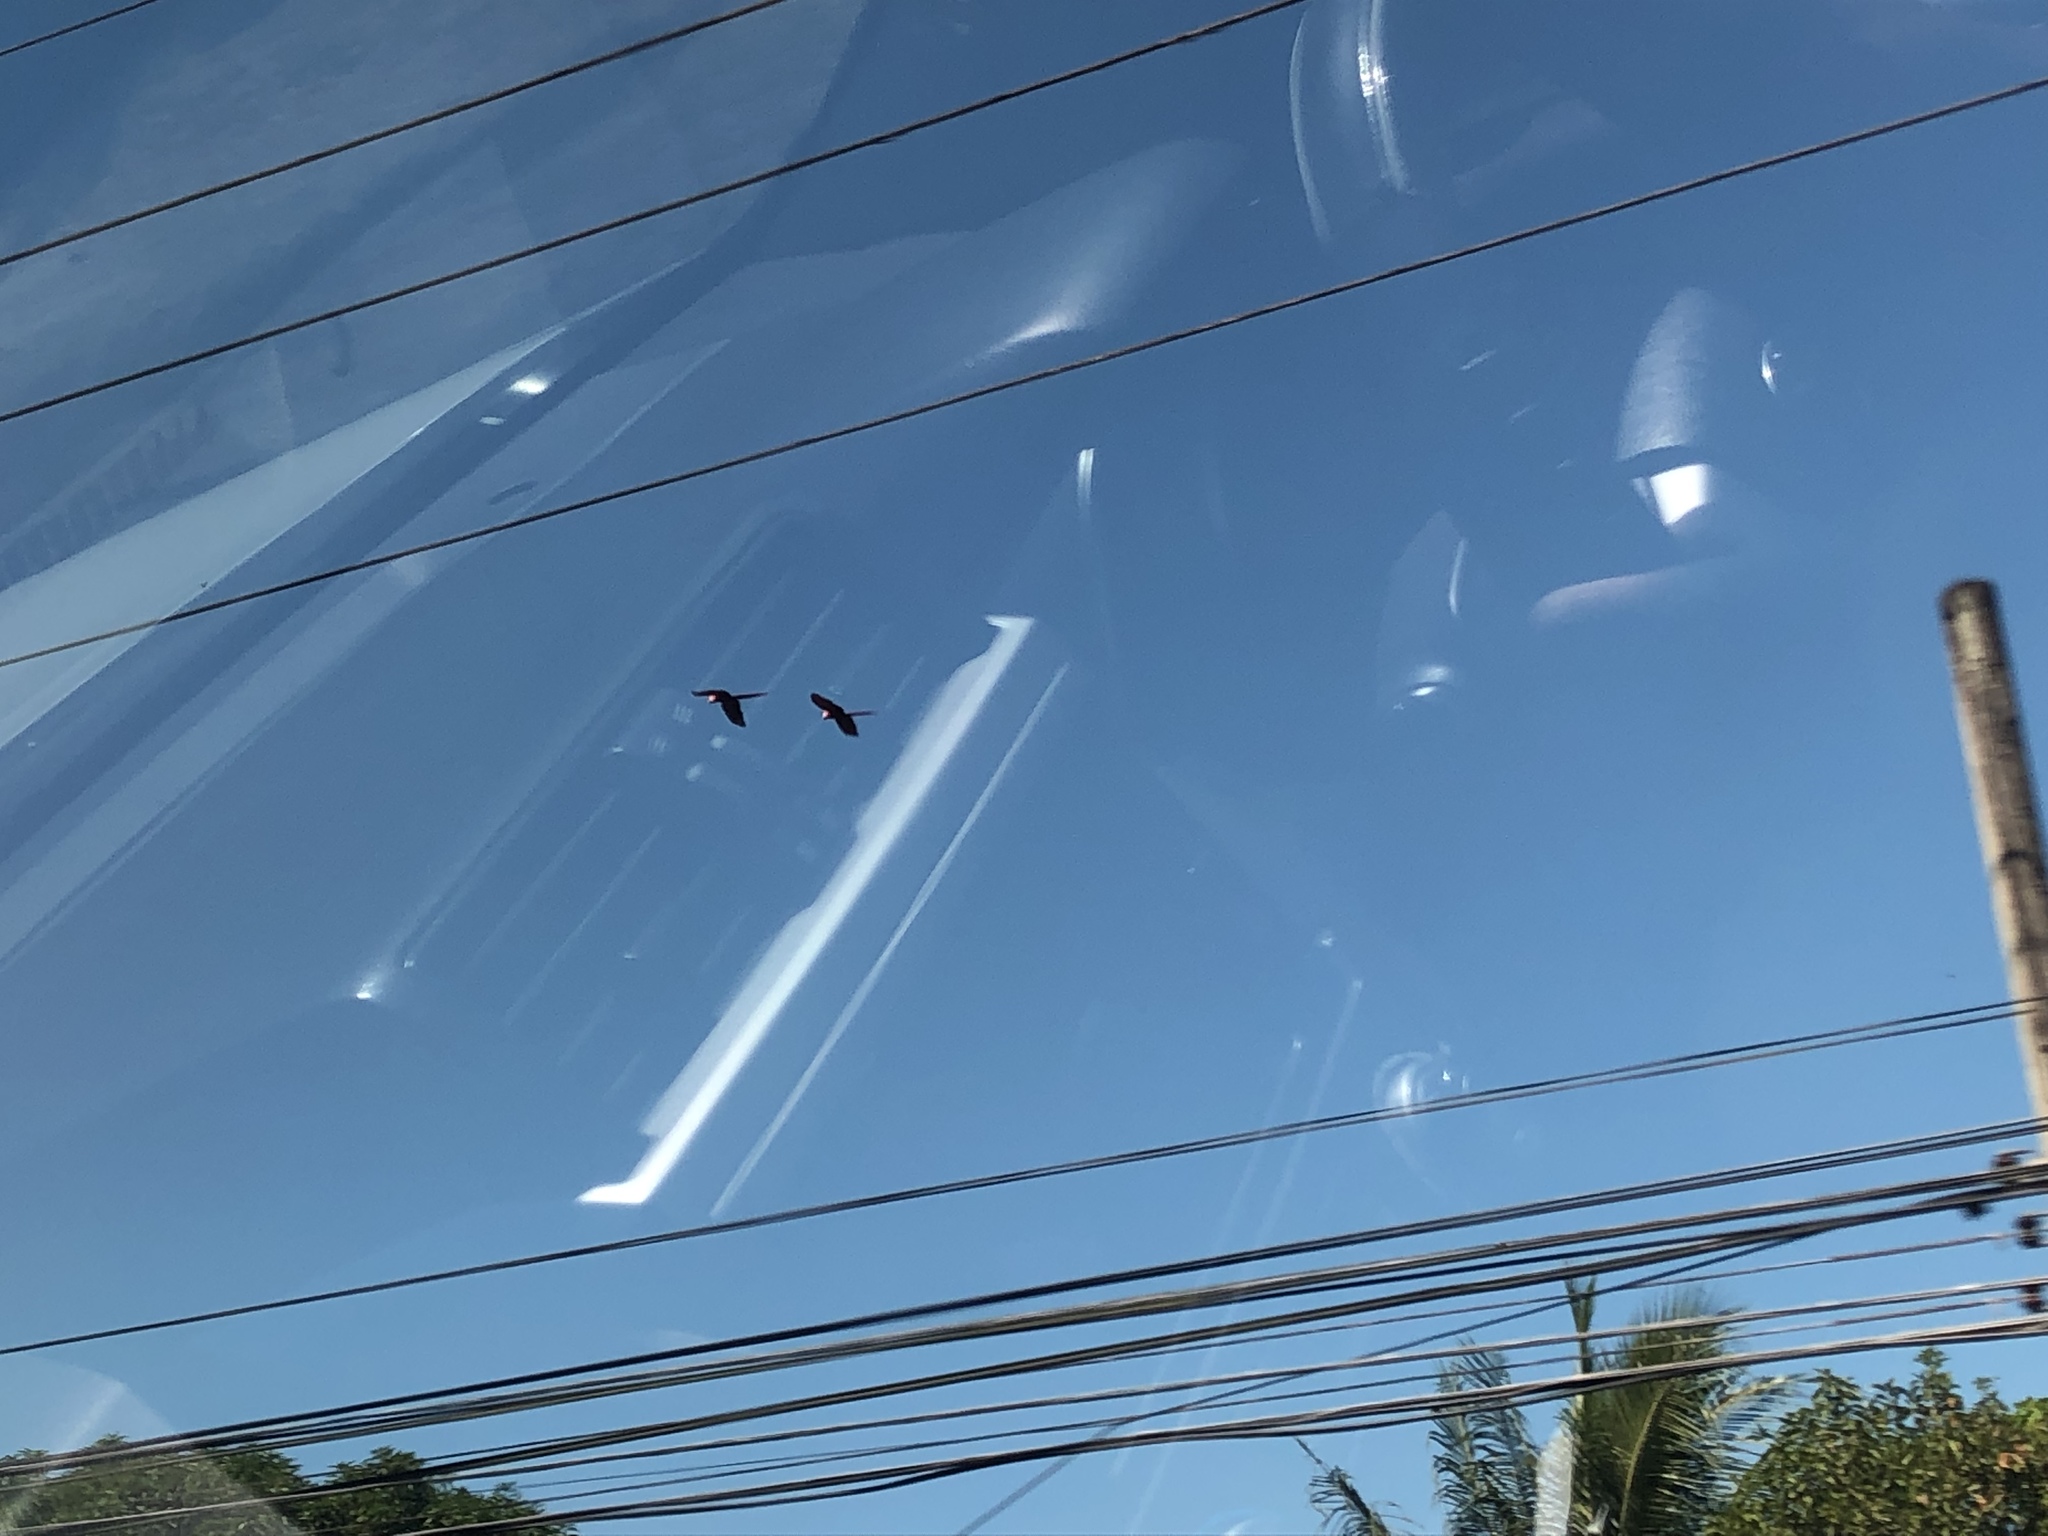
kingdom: Animalia
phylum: Chordata
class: Aves
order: Psittaciformes
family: Psittacidae
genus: Ara
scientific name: Ara macao
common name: Scarlet macaw
